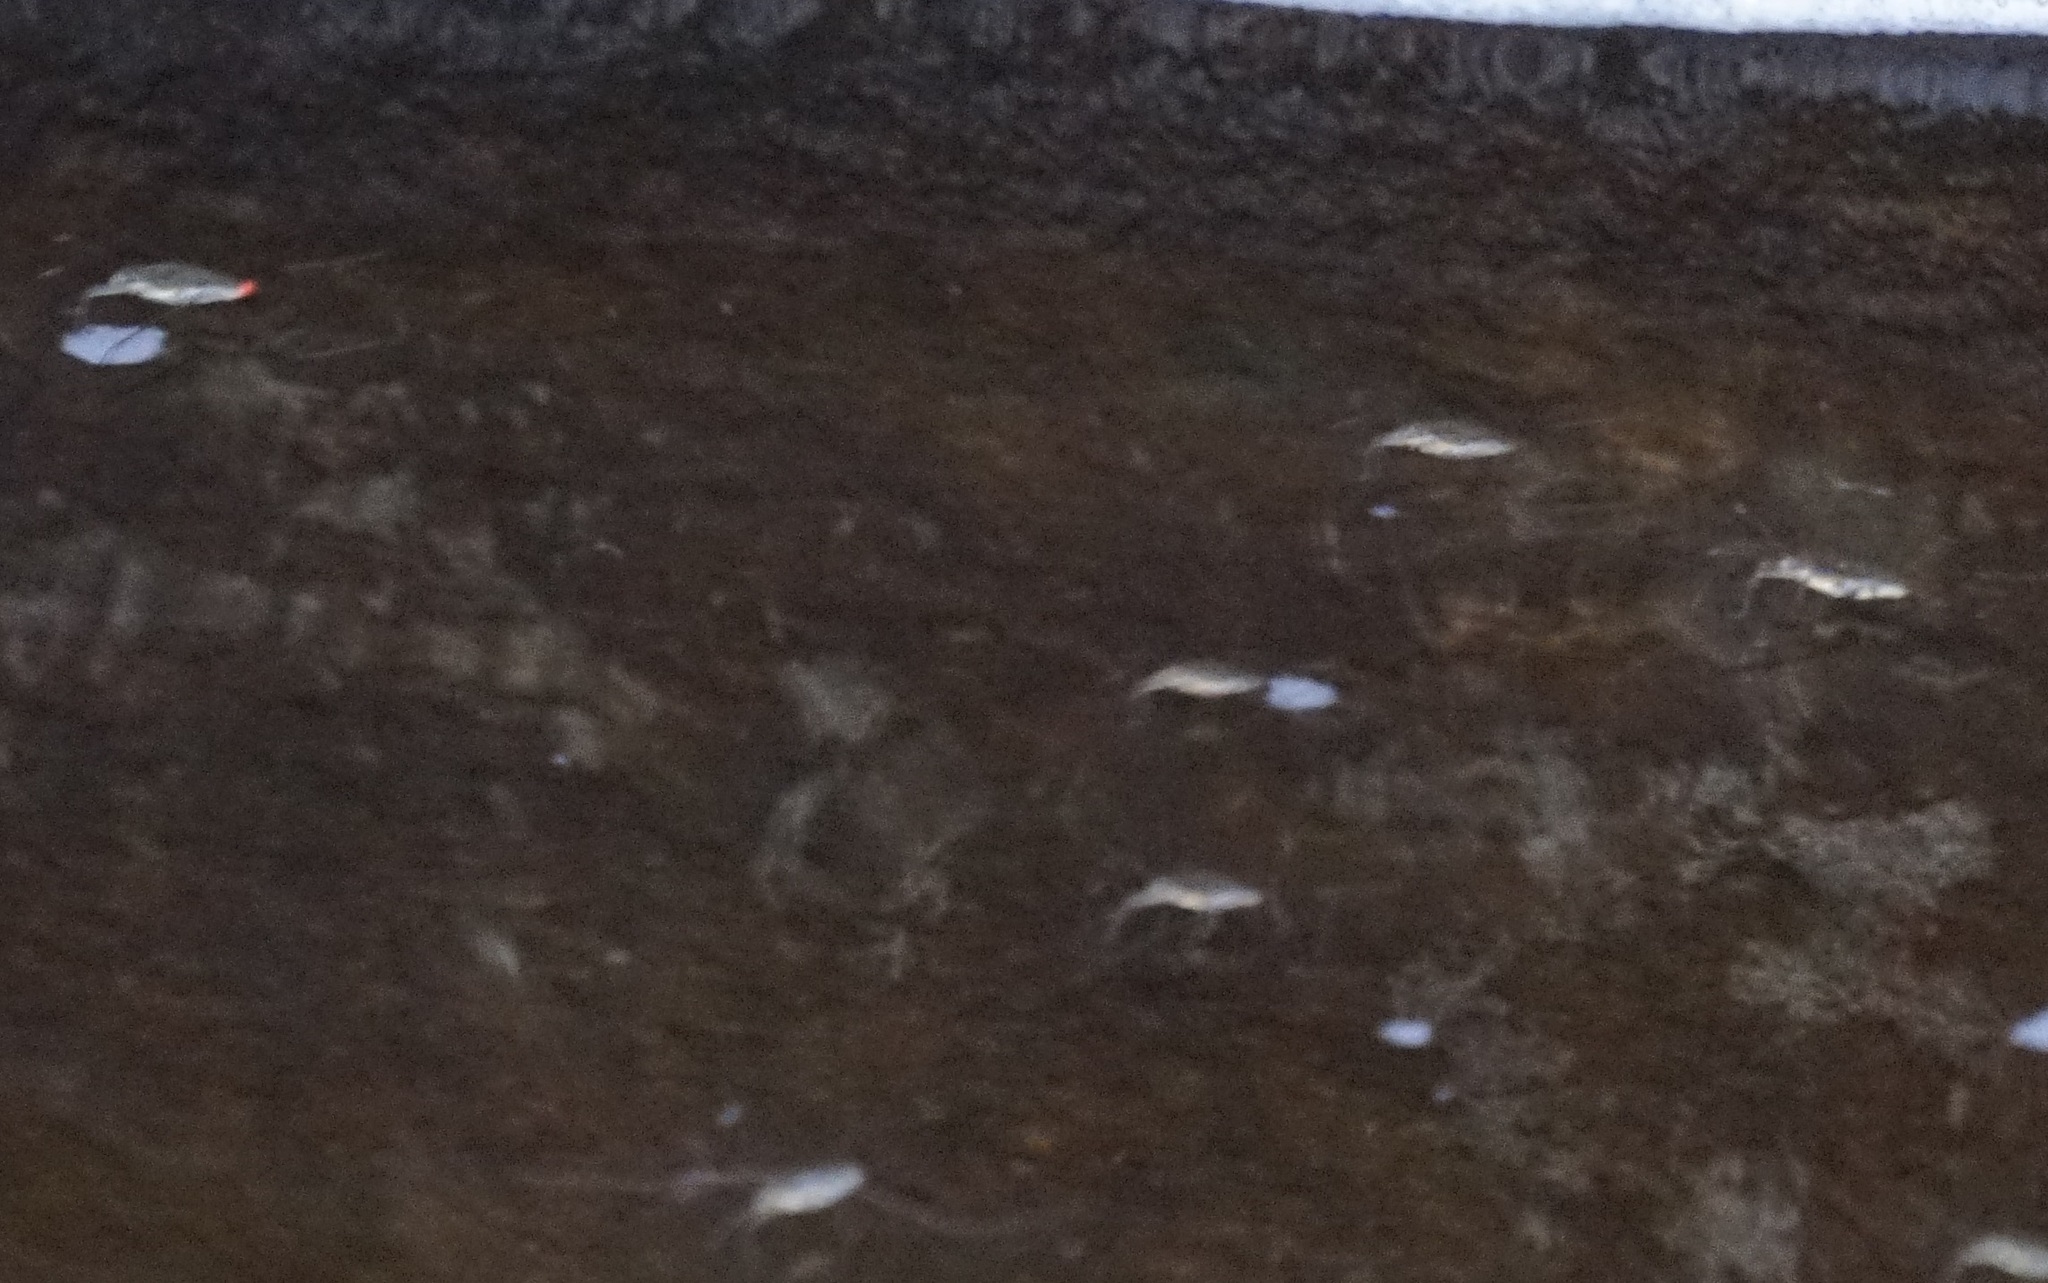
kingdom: Animalia
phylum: Arthropoda
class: Insecta
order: Hemiptera
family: Gerridae
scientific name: Gerridae
